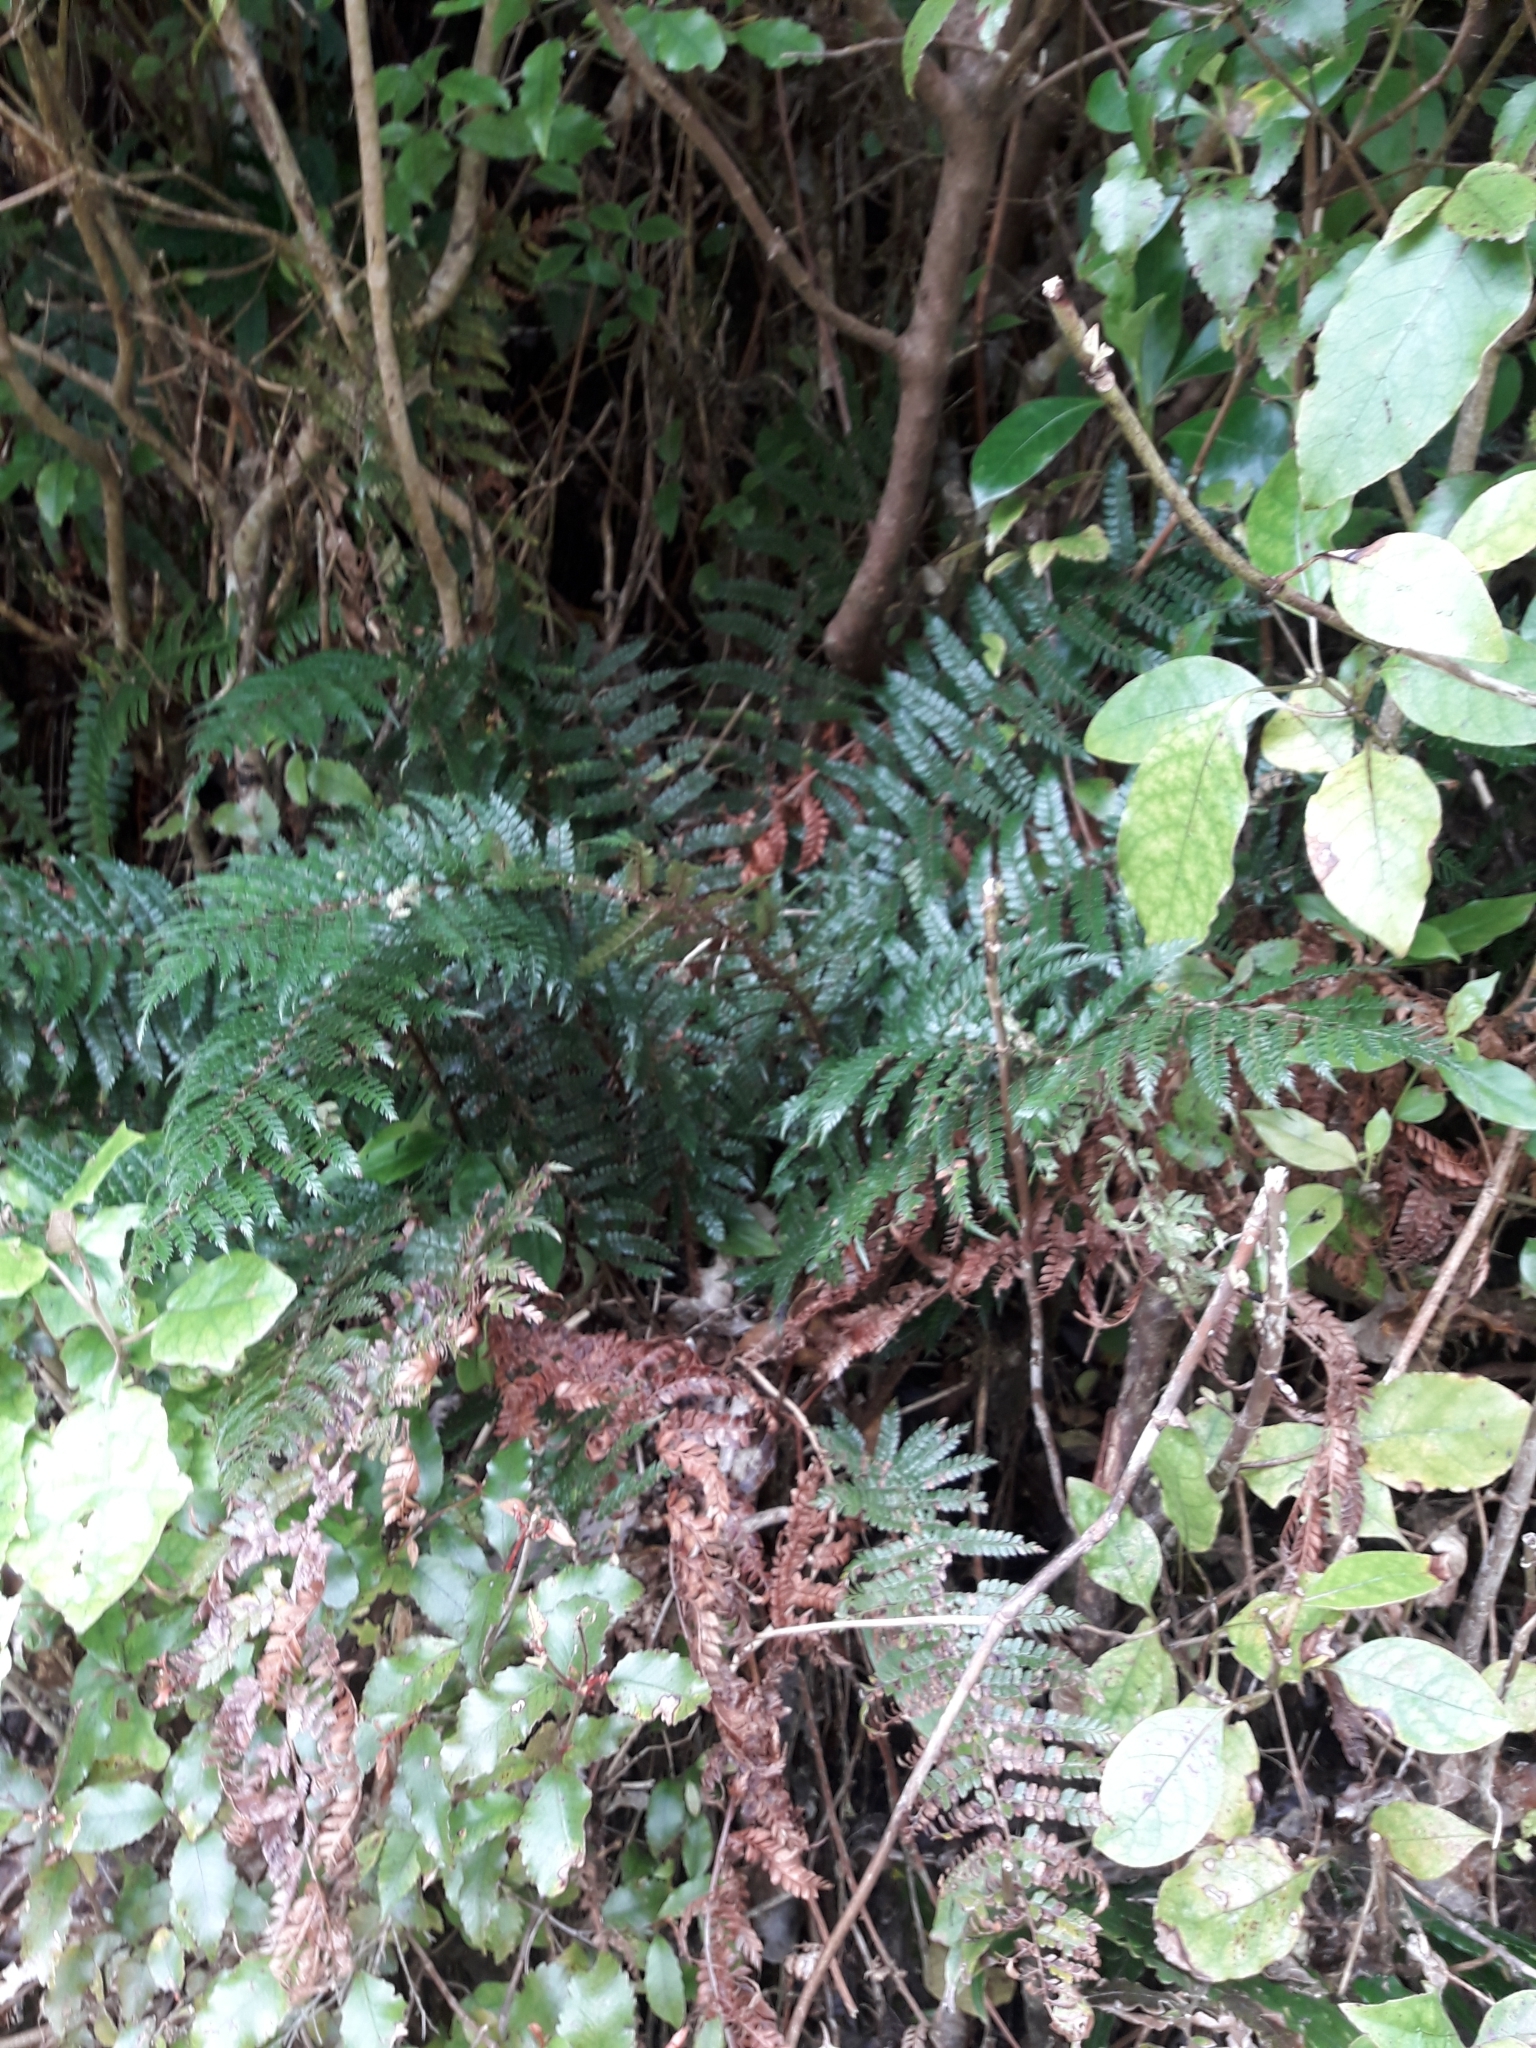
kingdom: Plantae
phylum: Tracheophyta
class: Polypodiopsida
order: Polypodiales
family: Dryopteridaceae
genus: Polystichum
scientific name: Polystichum vestitum
